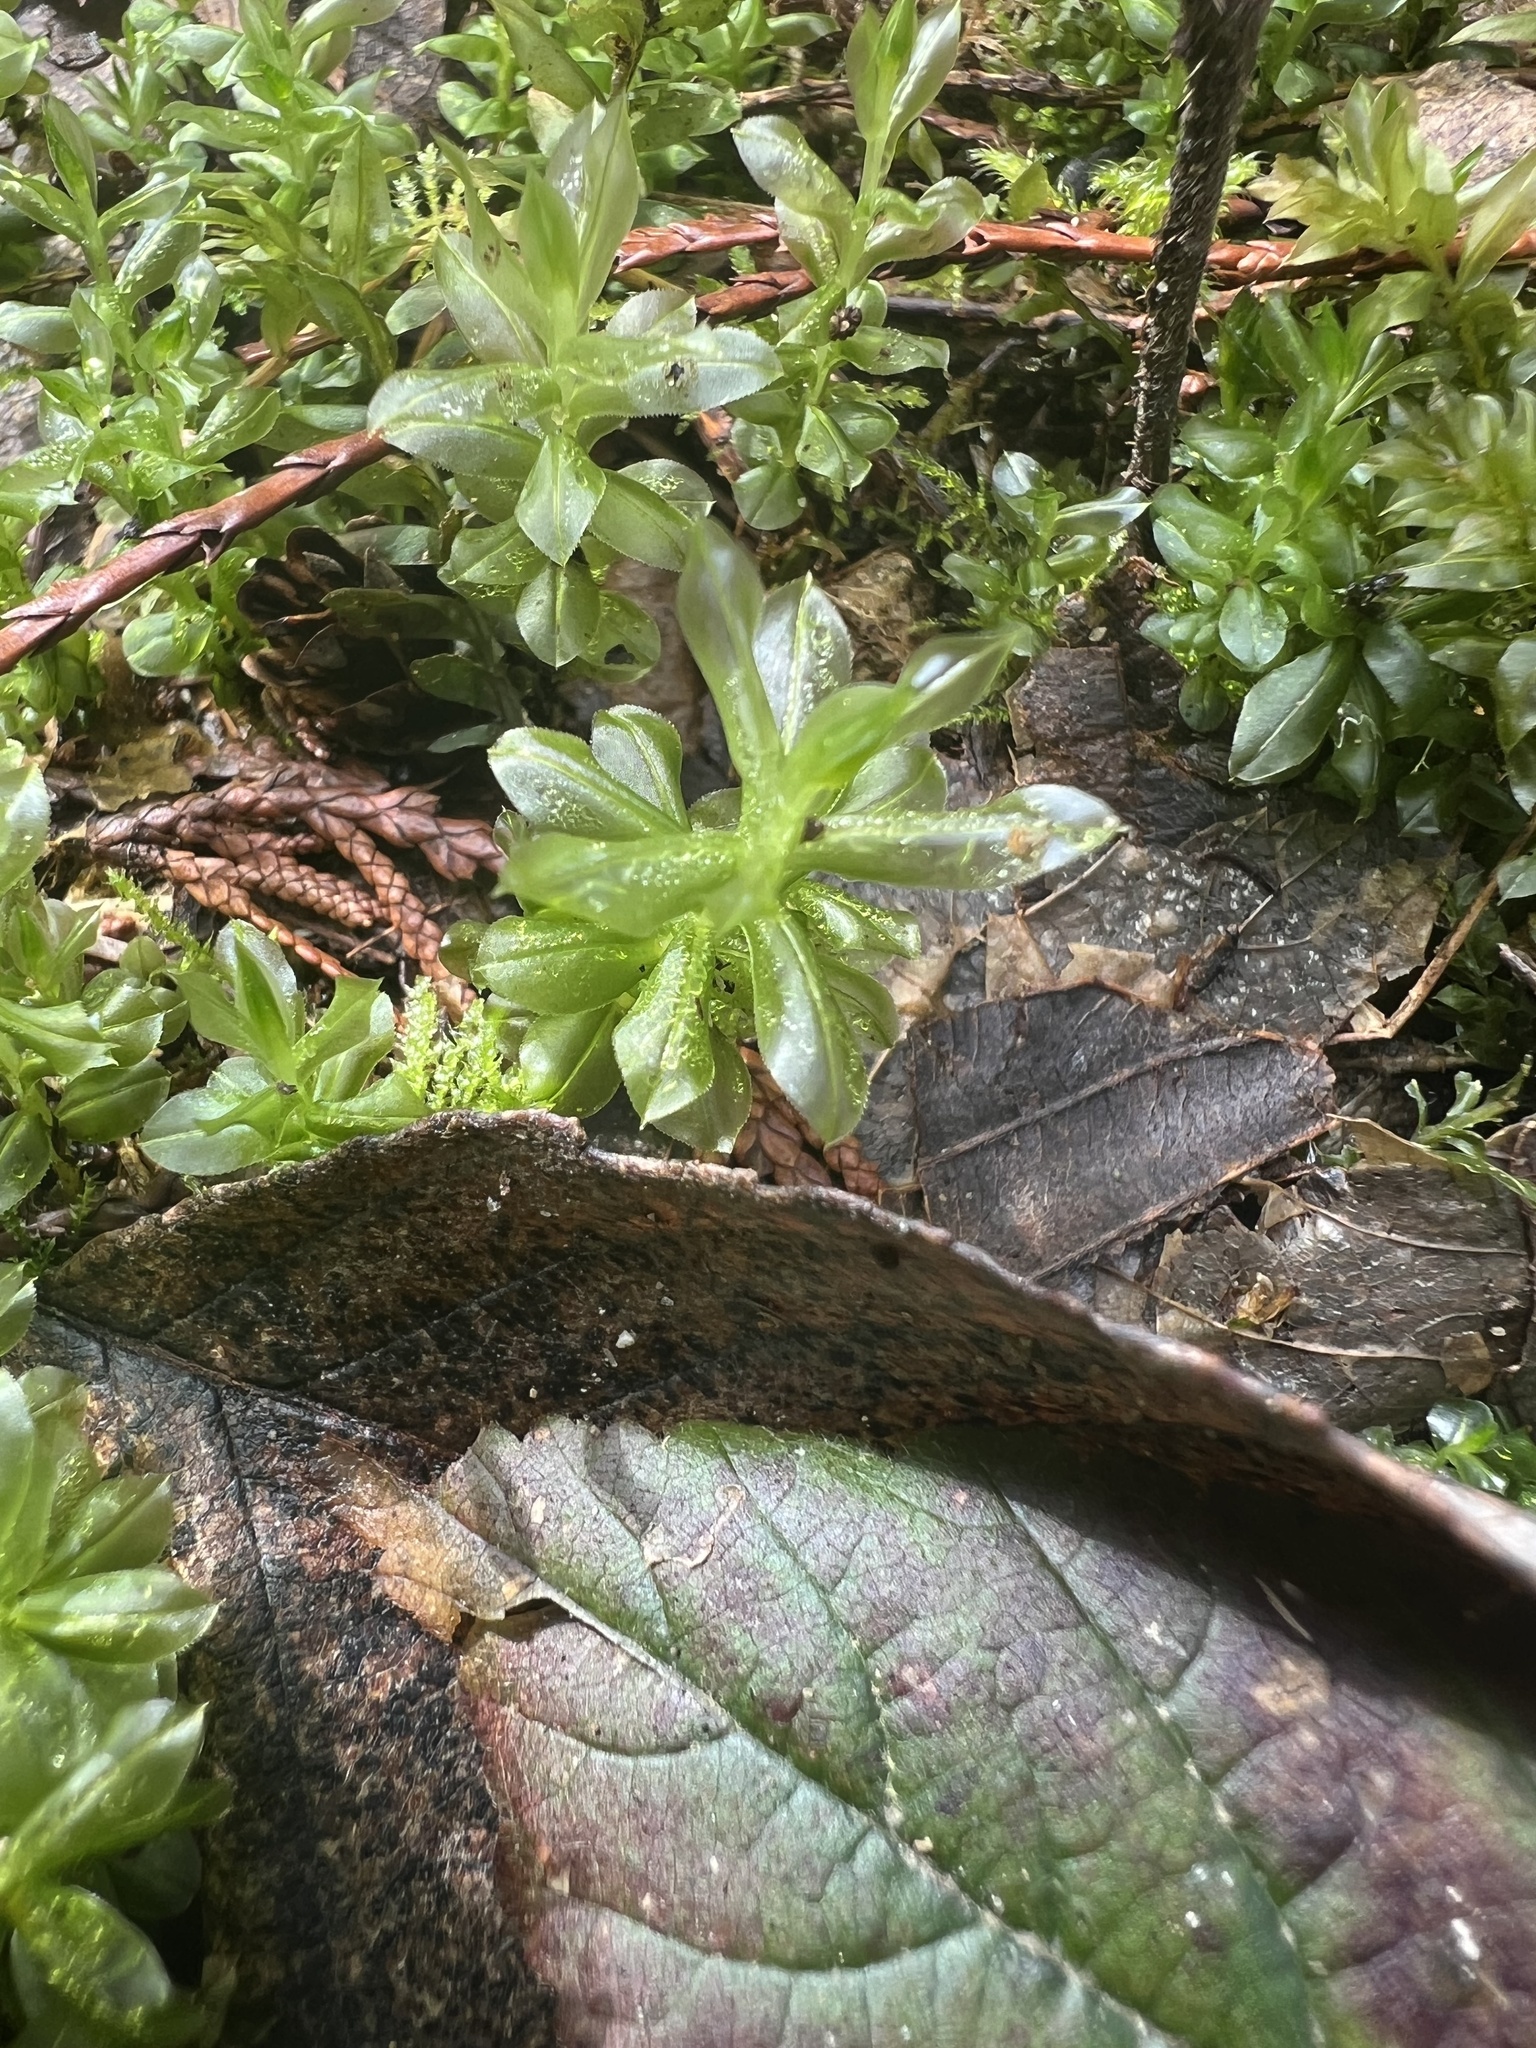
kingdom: Plantae
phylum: Bryophyta
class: Bryopsida
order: Bryales
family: Mniaceae
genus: Plagiomnium
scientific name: Plagiomnium insigne
